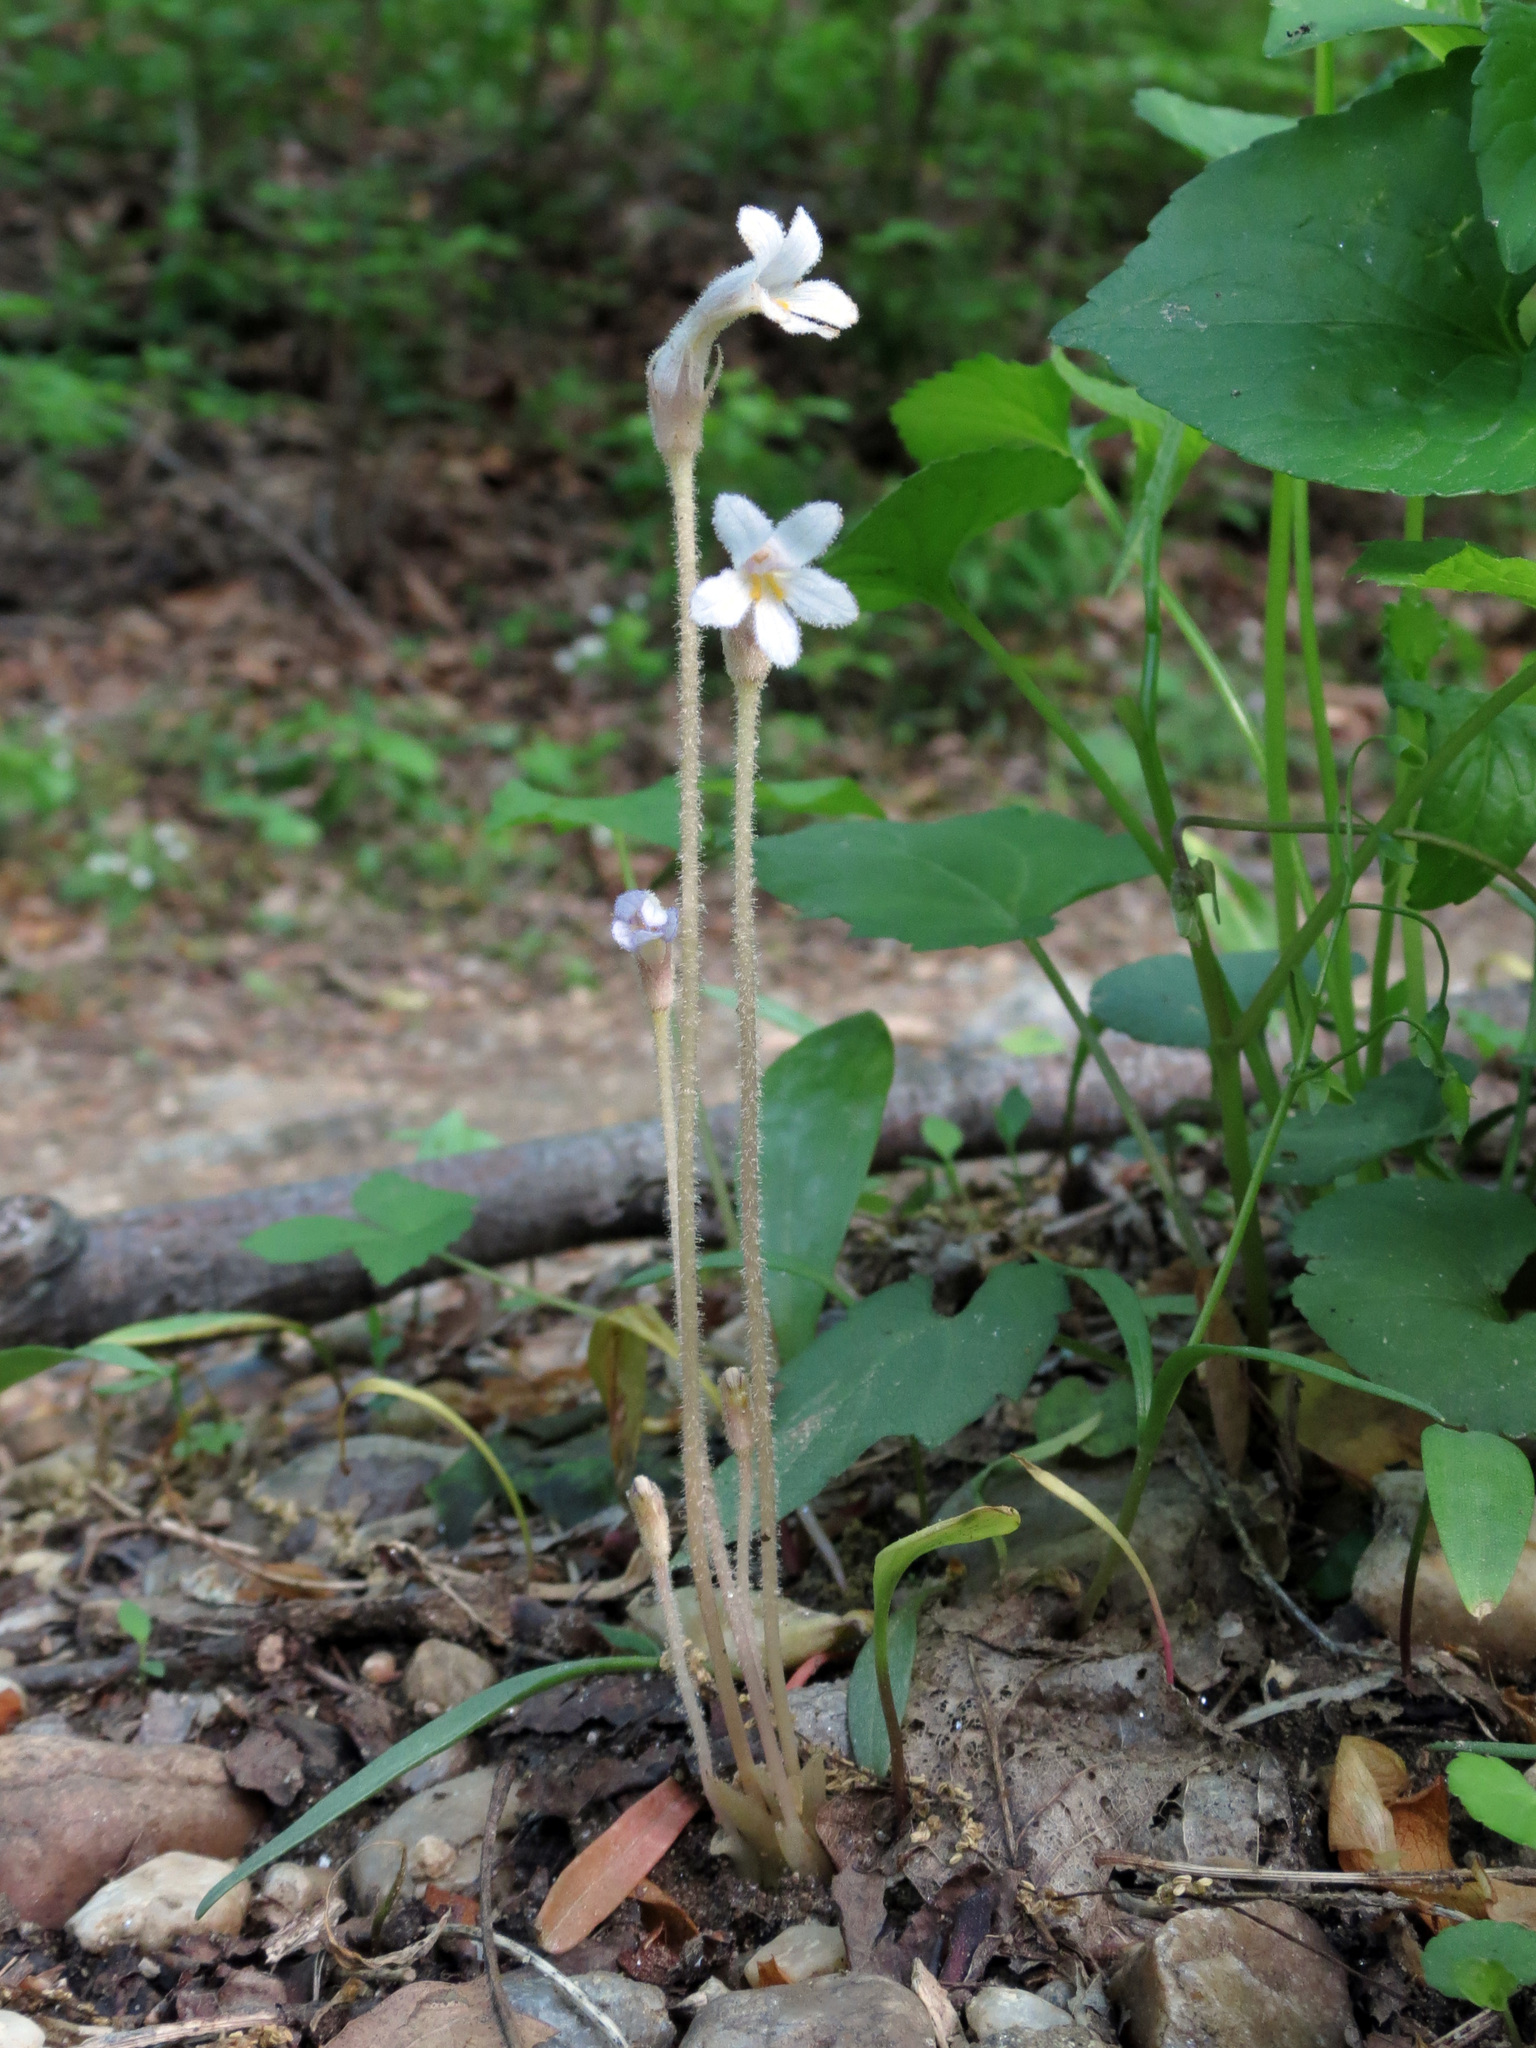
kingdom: Plantae
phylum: Tracheophyta
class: Magnoliopsida
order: Lamiales
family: Orobanchaceae
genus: Aphyllon
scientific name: Aphyllon uniflorum
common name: One-flowered broomrape
